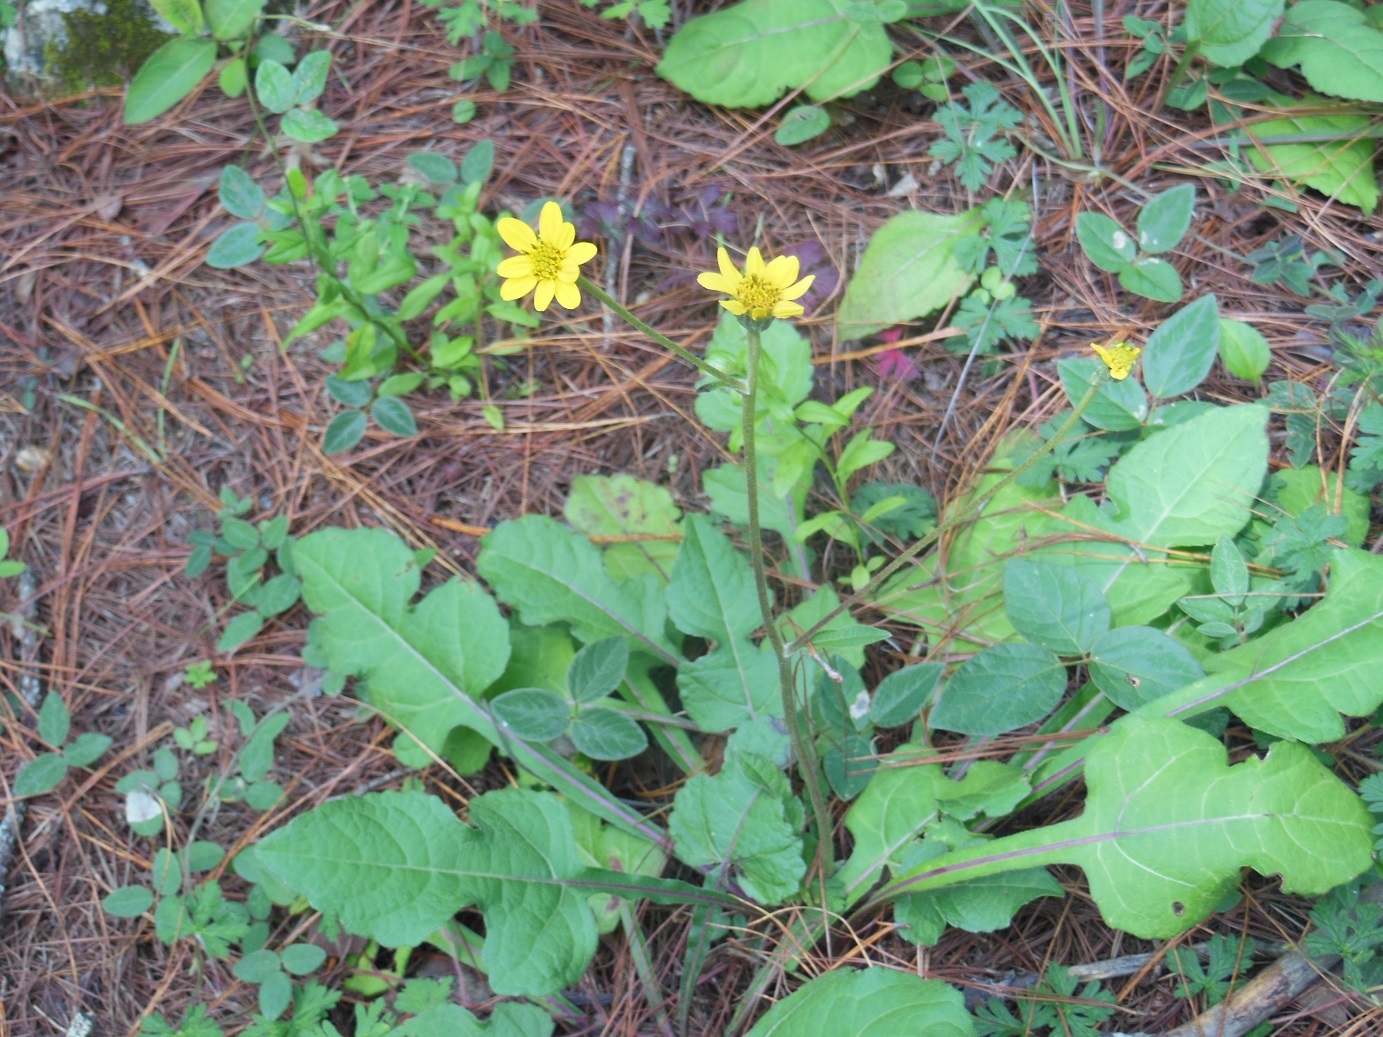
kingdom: Plantae
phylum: Tracheophyta
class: Magnoliopsida
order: Asterales
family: Asteraceae
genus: Iostephane
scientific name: Iostephane trilobata
